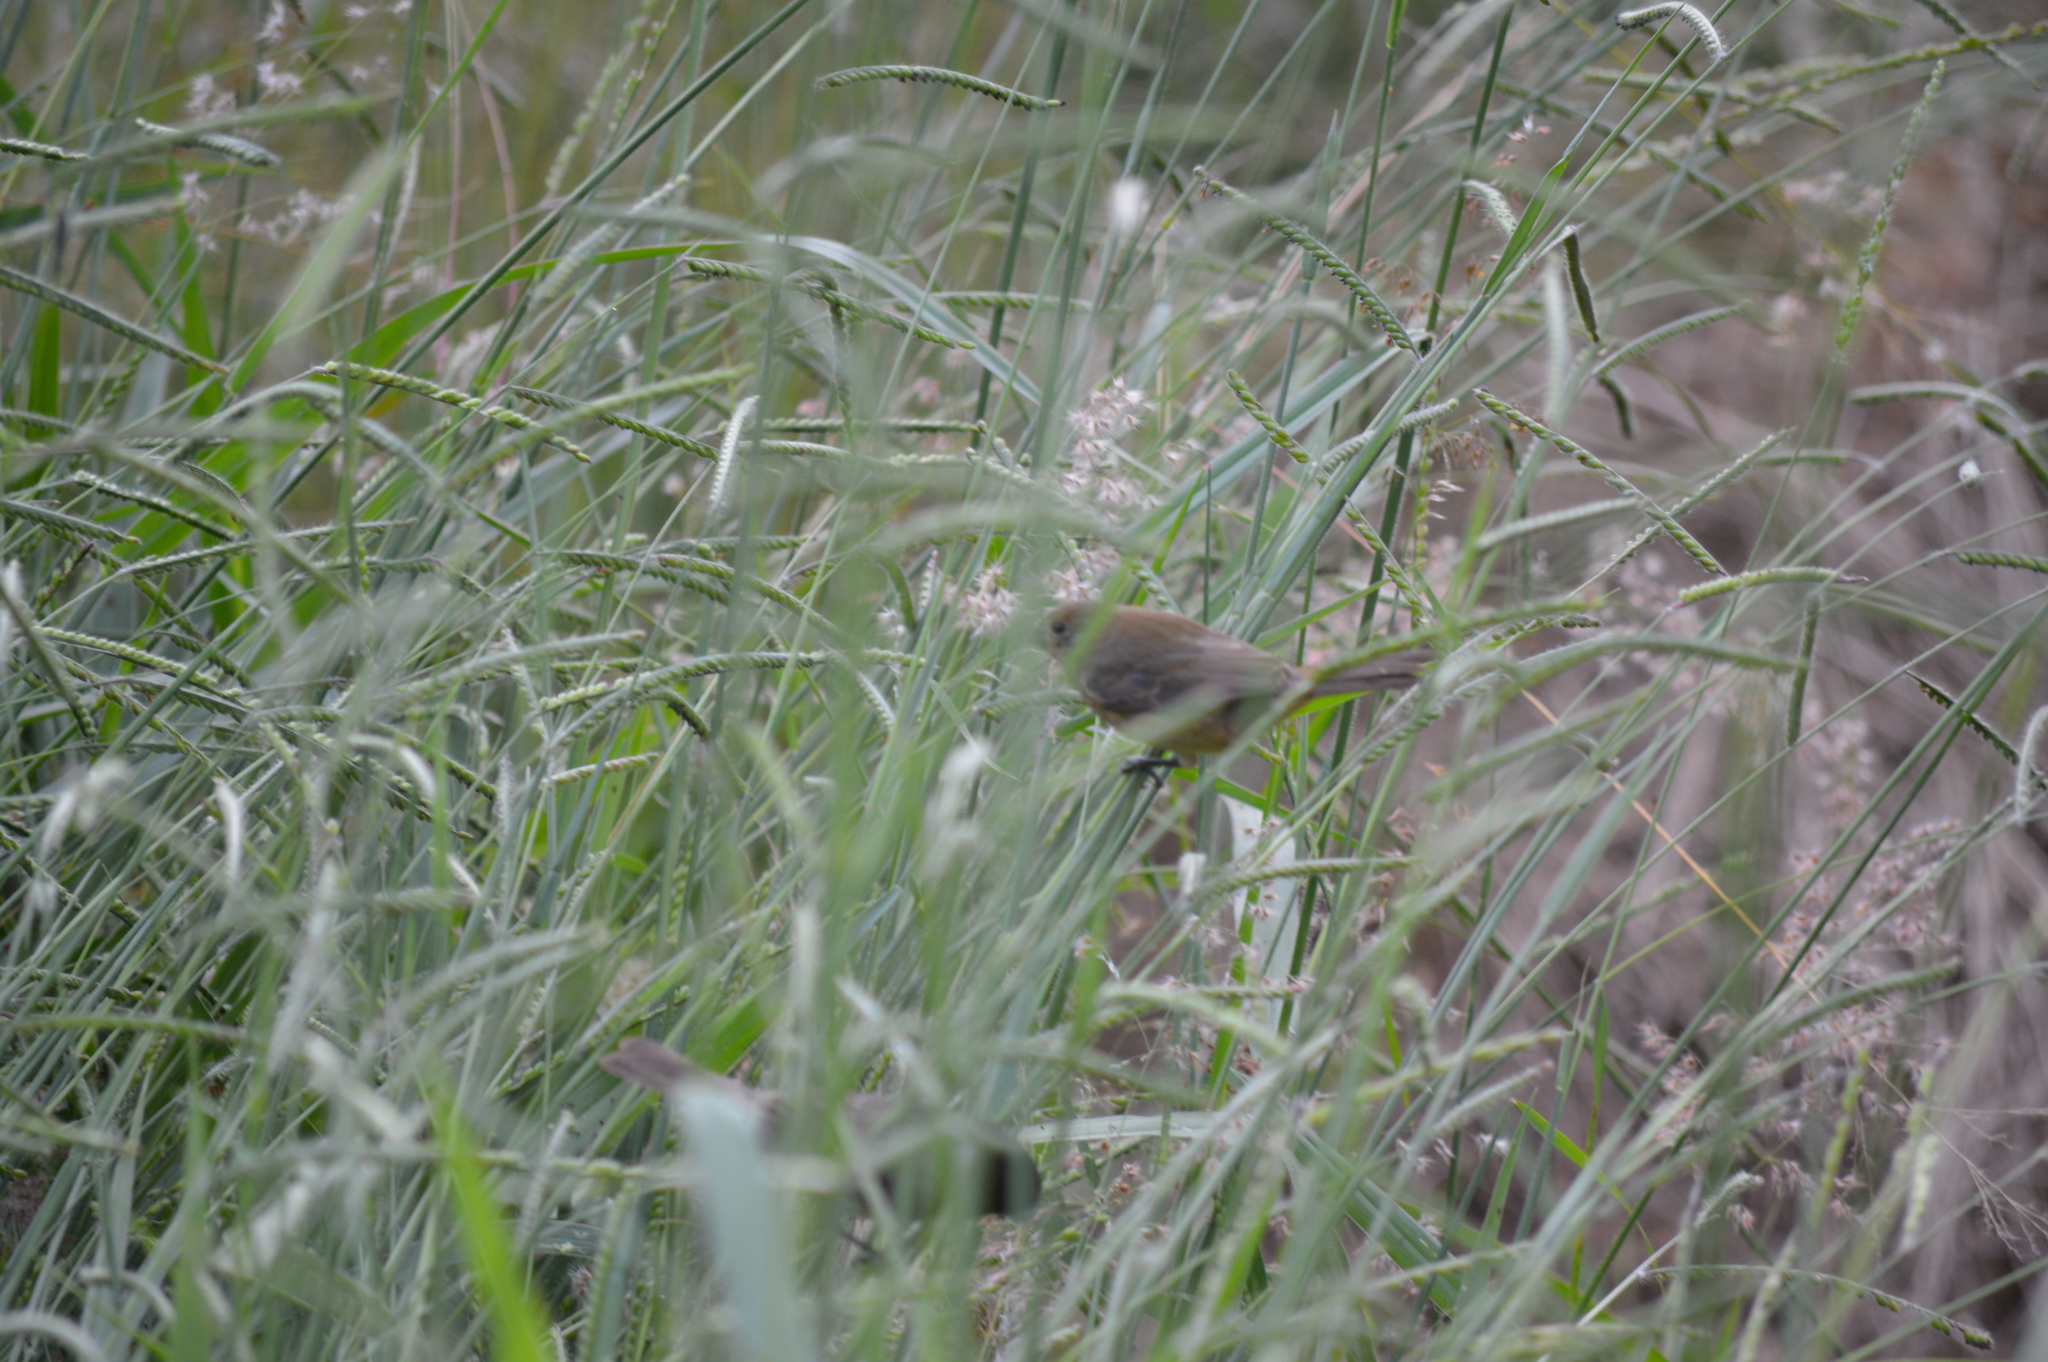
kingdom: Animalia
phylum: Chordata
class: Aves
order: Passeriformes
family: Thraupidae
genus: Sporophila
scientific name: Sporophila nigricollis
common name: Yellow-bellied seedeater
